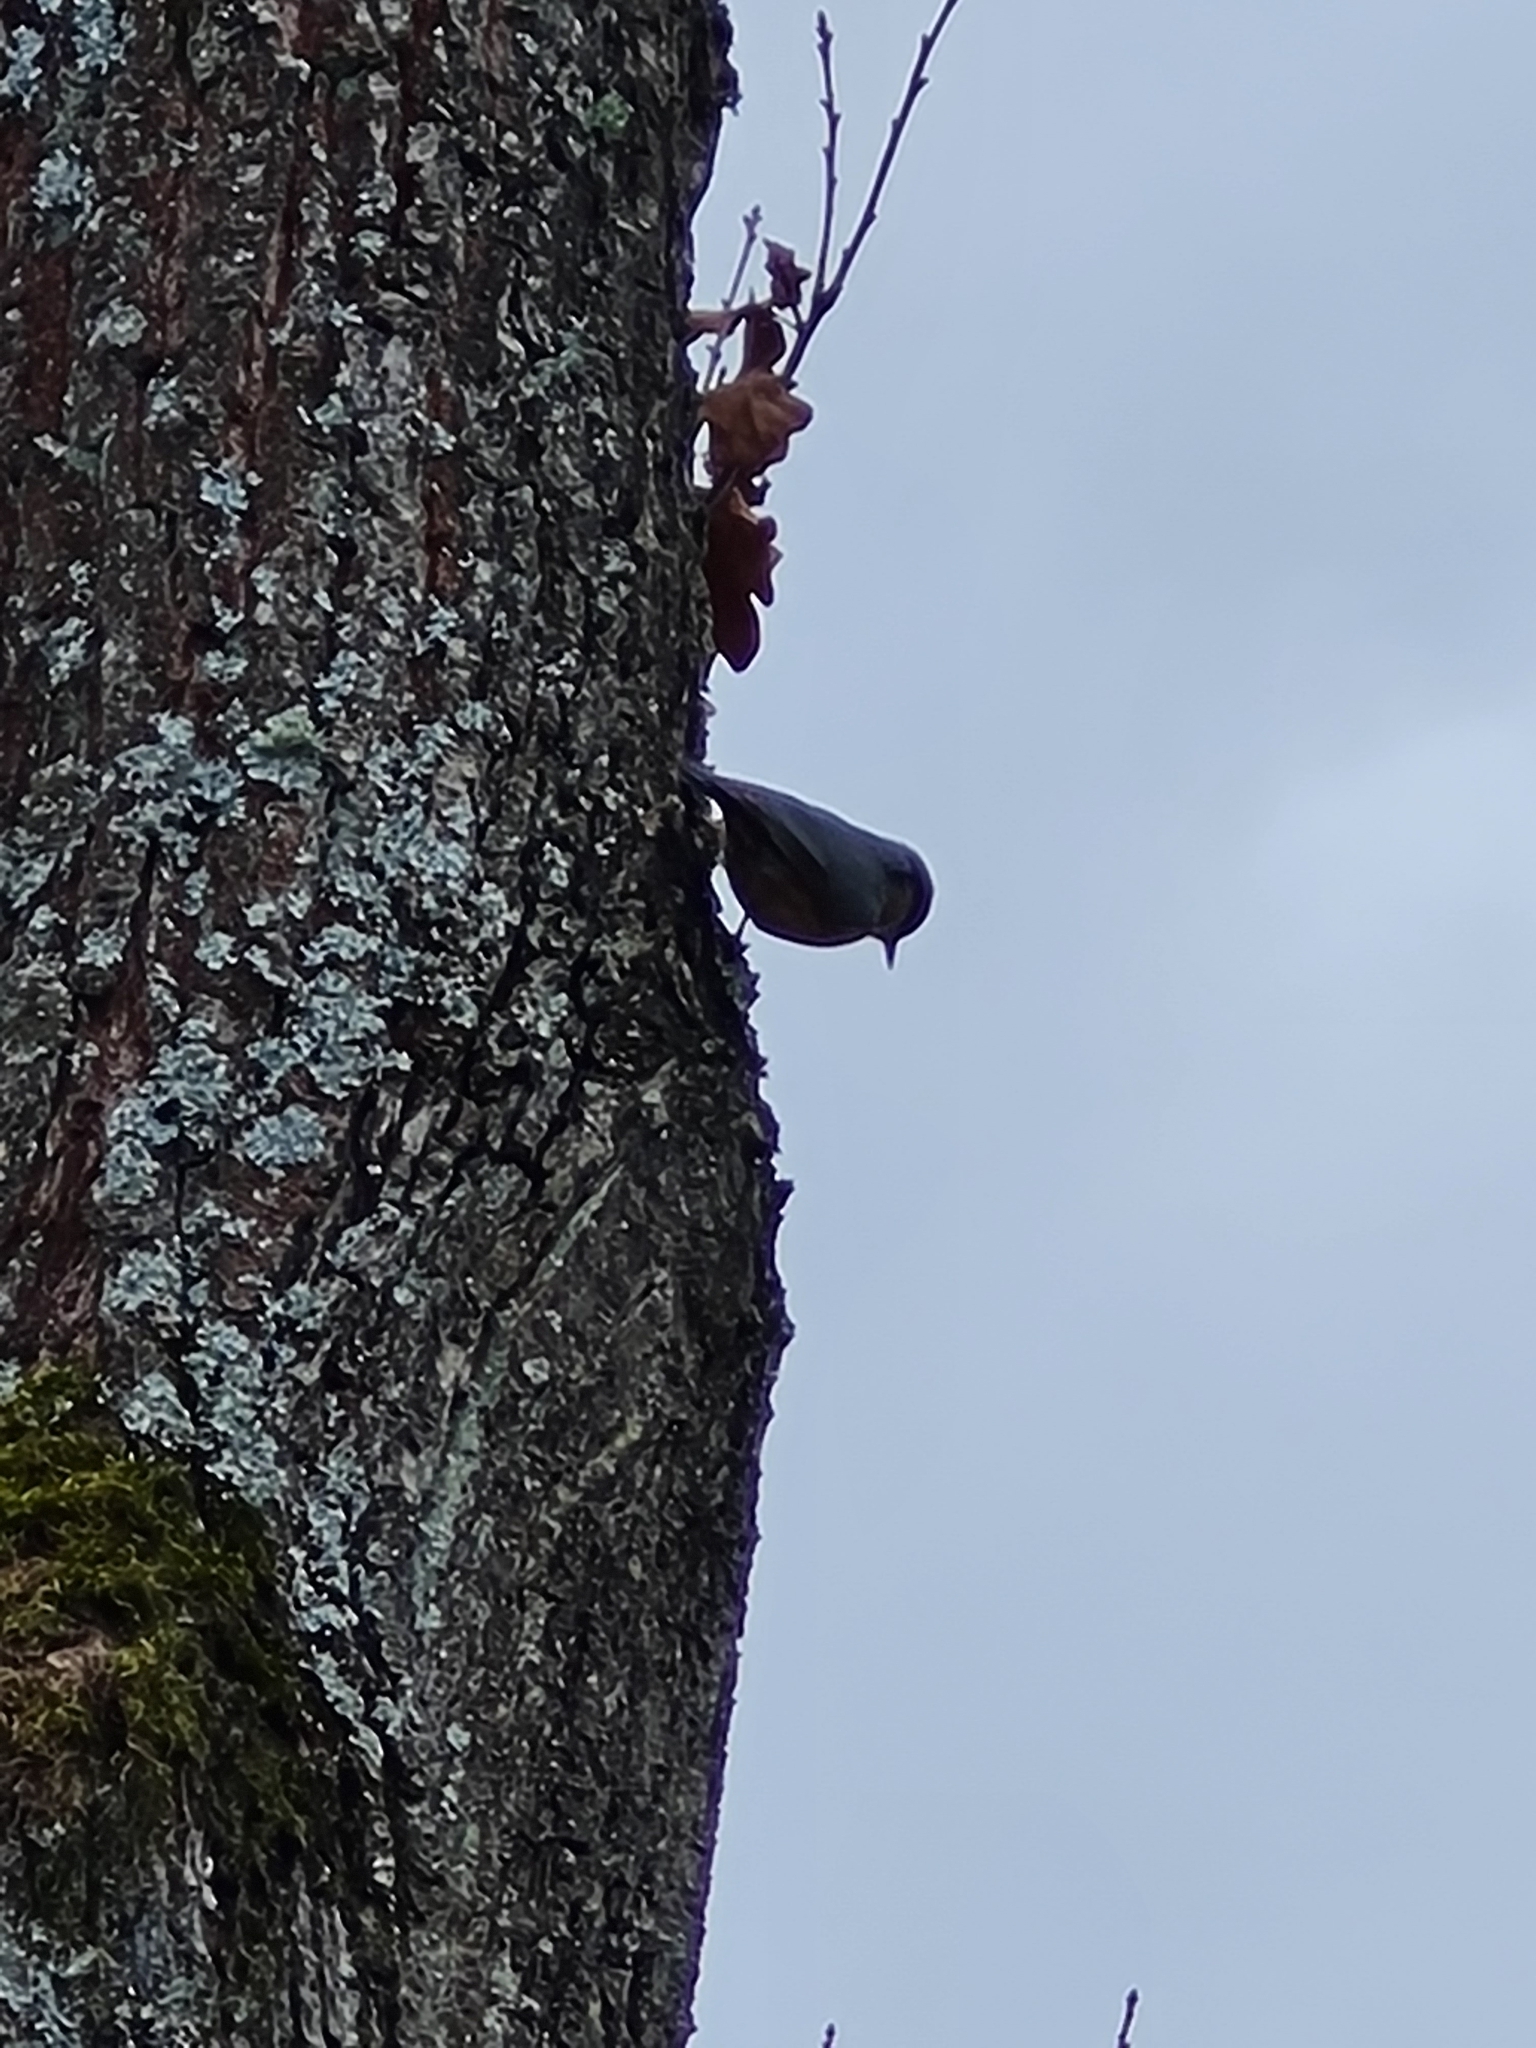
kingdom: Animalia
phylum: Chordata
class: Aves
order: Passeriformes
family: Sittidae
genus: Sitta
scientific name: Sitta europaea
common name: Eurasian nuthatch
